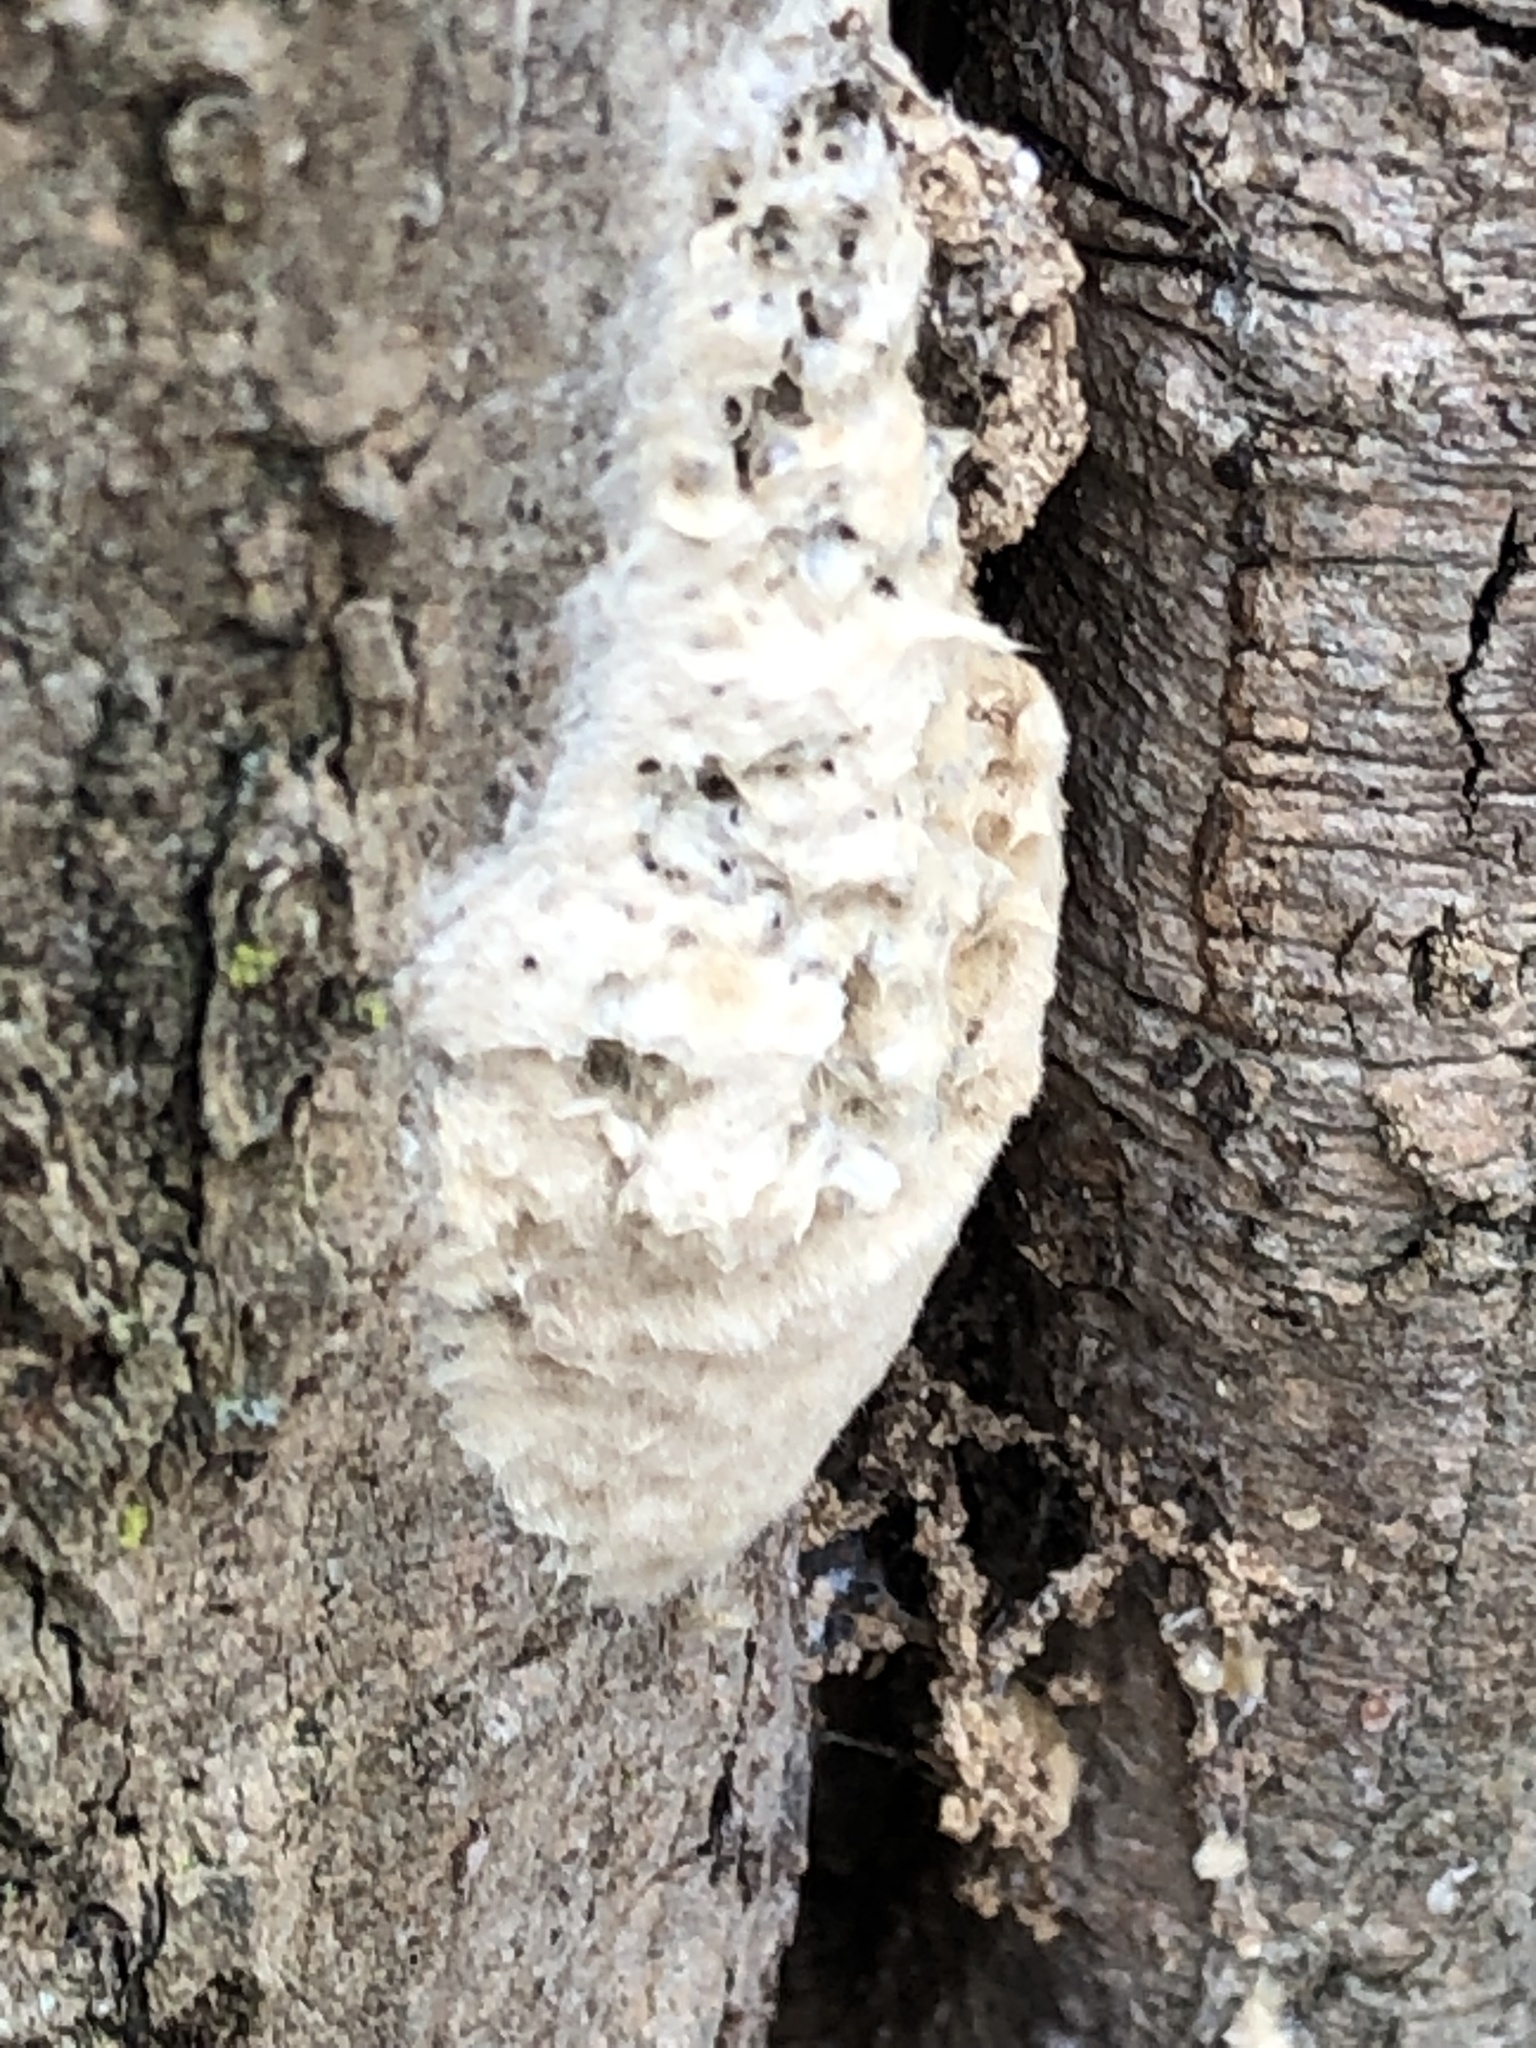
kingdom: Animalia
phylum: Arthropoda
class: Insecta
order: Lepidoptera
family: Erebidae
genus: Lymantria
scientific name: Lymantria dispar
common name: Gypsy moth
